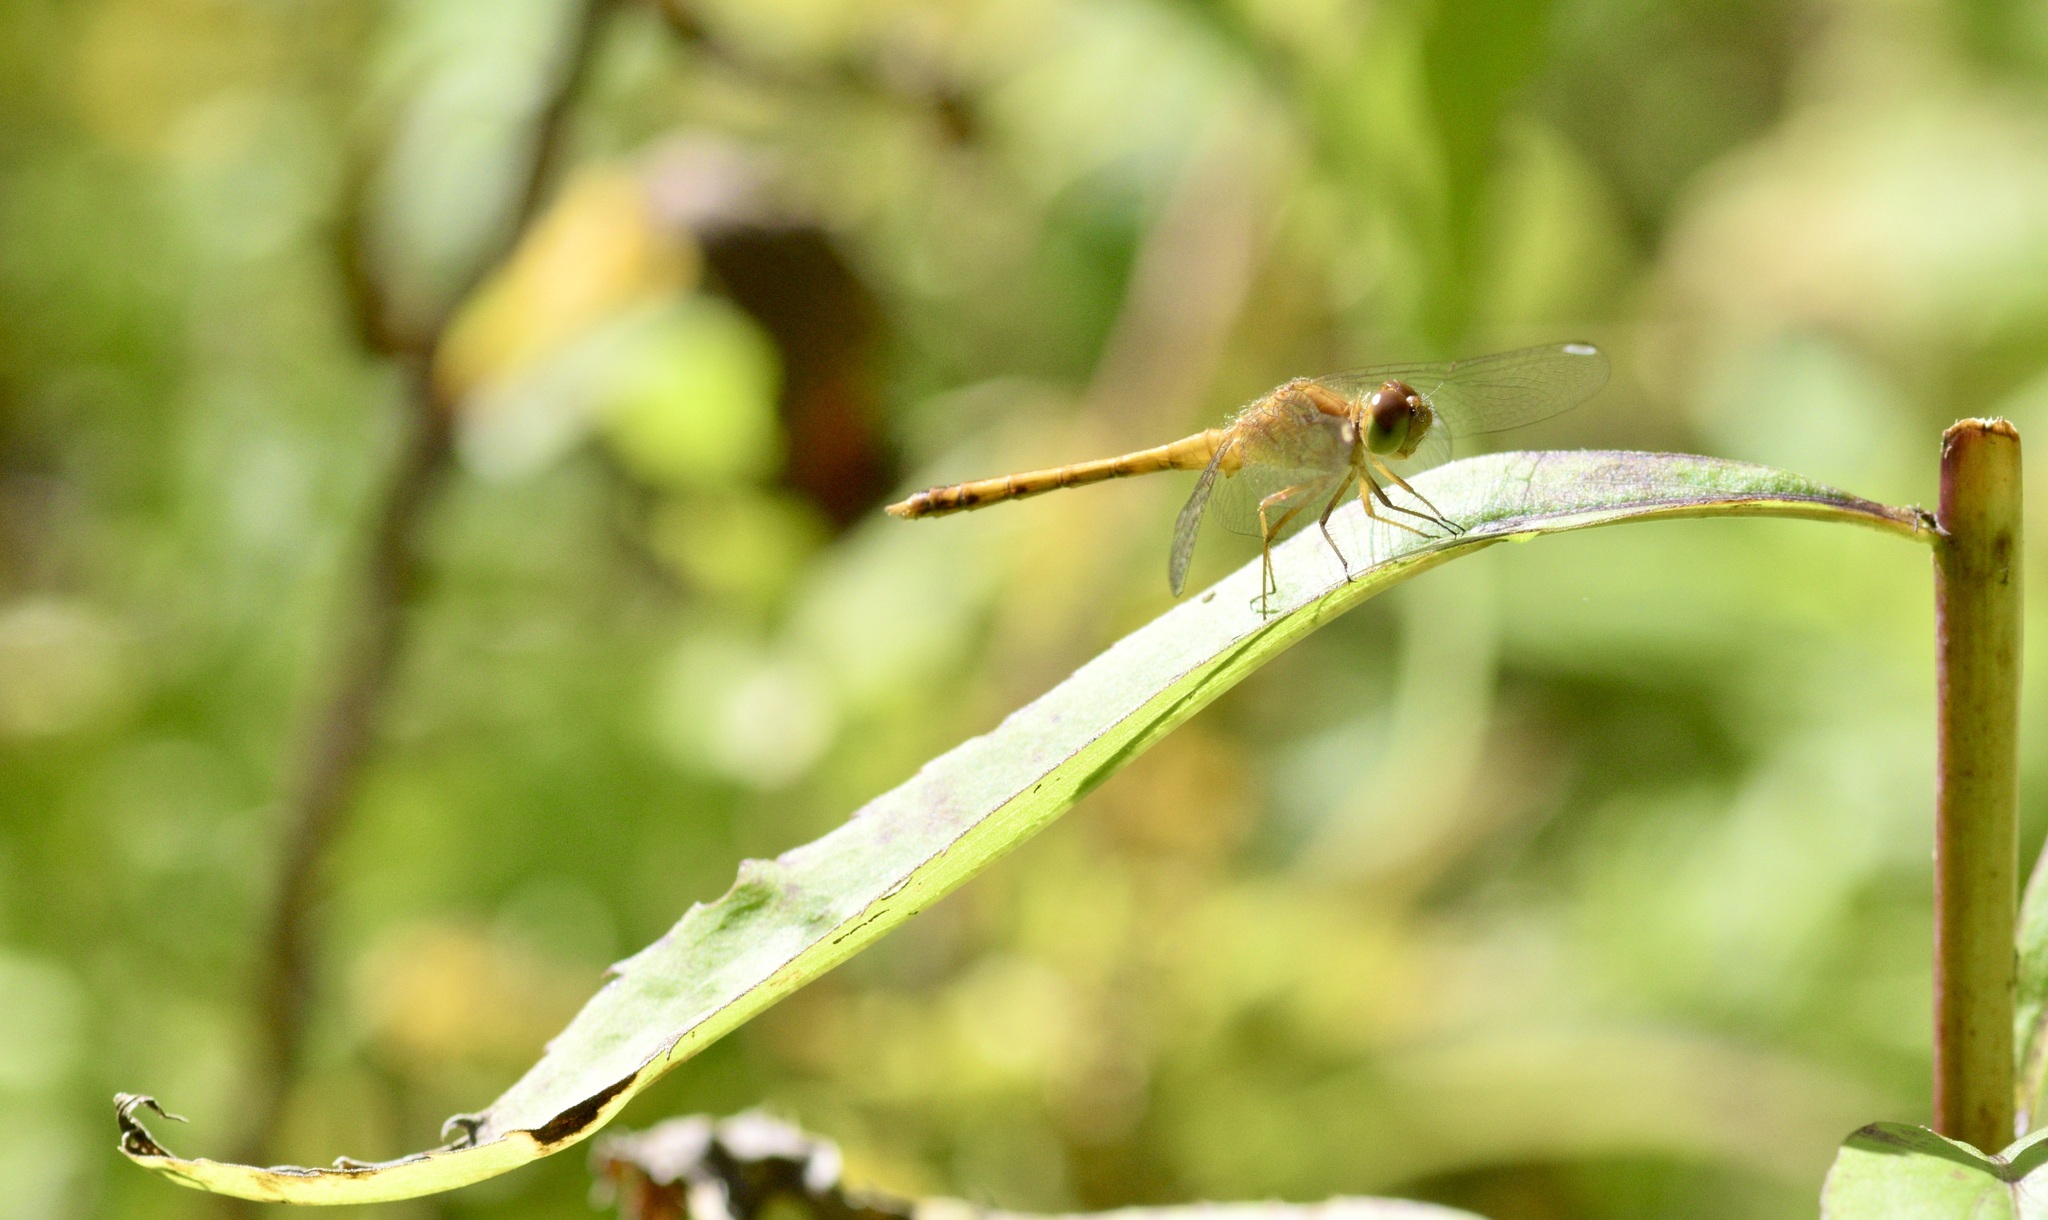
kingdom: Animalia
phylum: Arthropoda
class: Insecta
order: Odonata
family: Libellulidae
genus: Sympetrum
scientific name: Sympetrum vicinum
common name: Autumn meadowhawk
